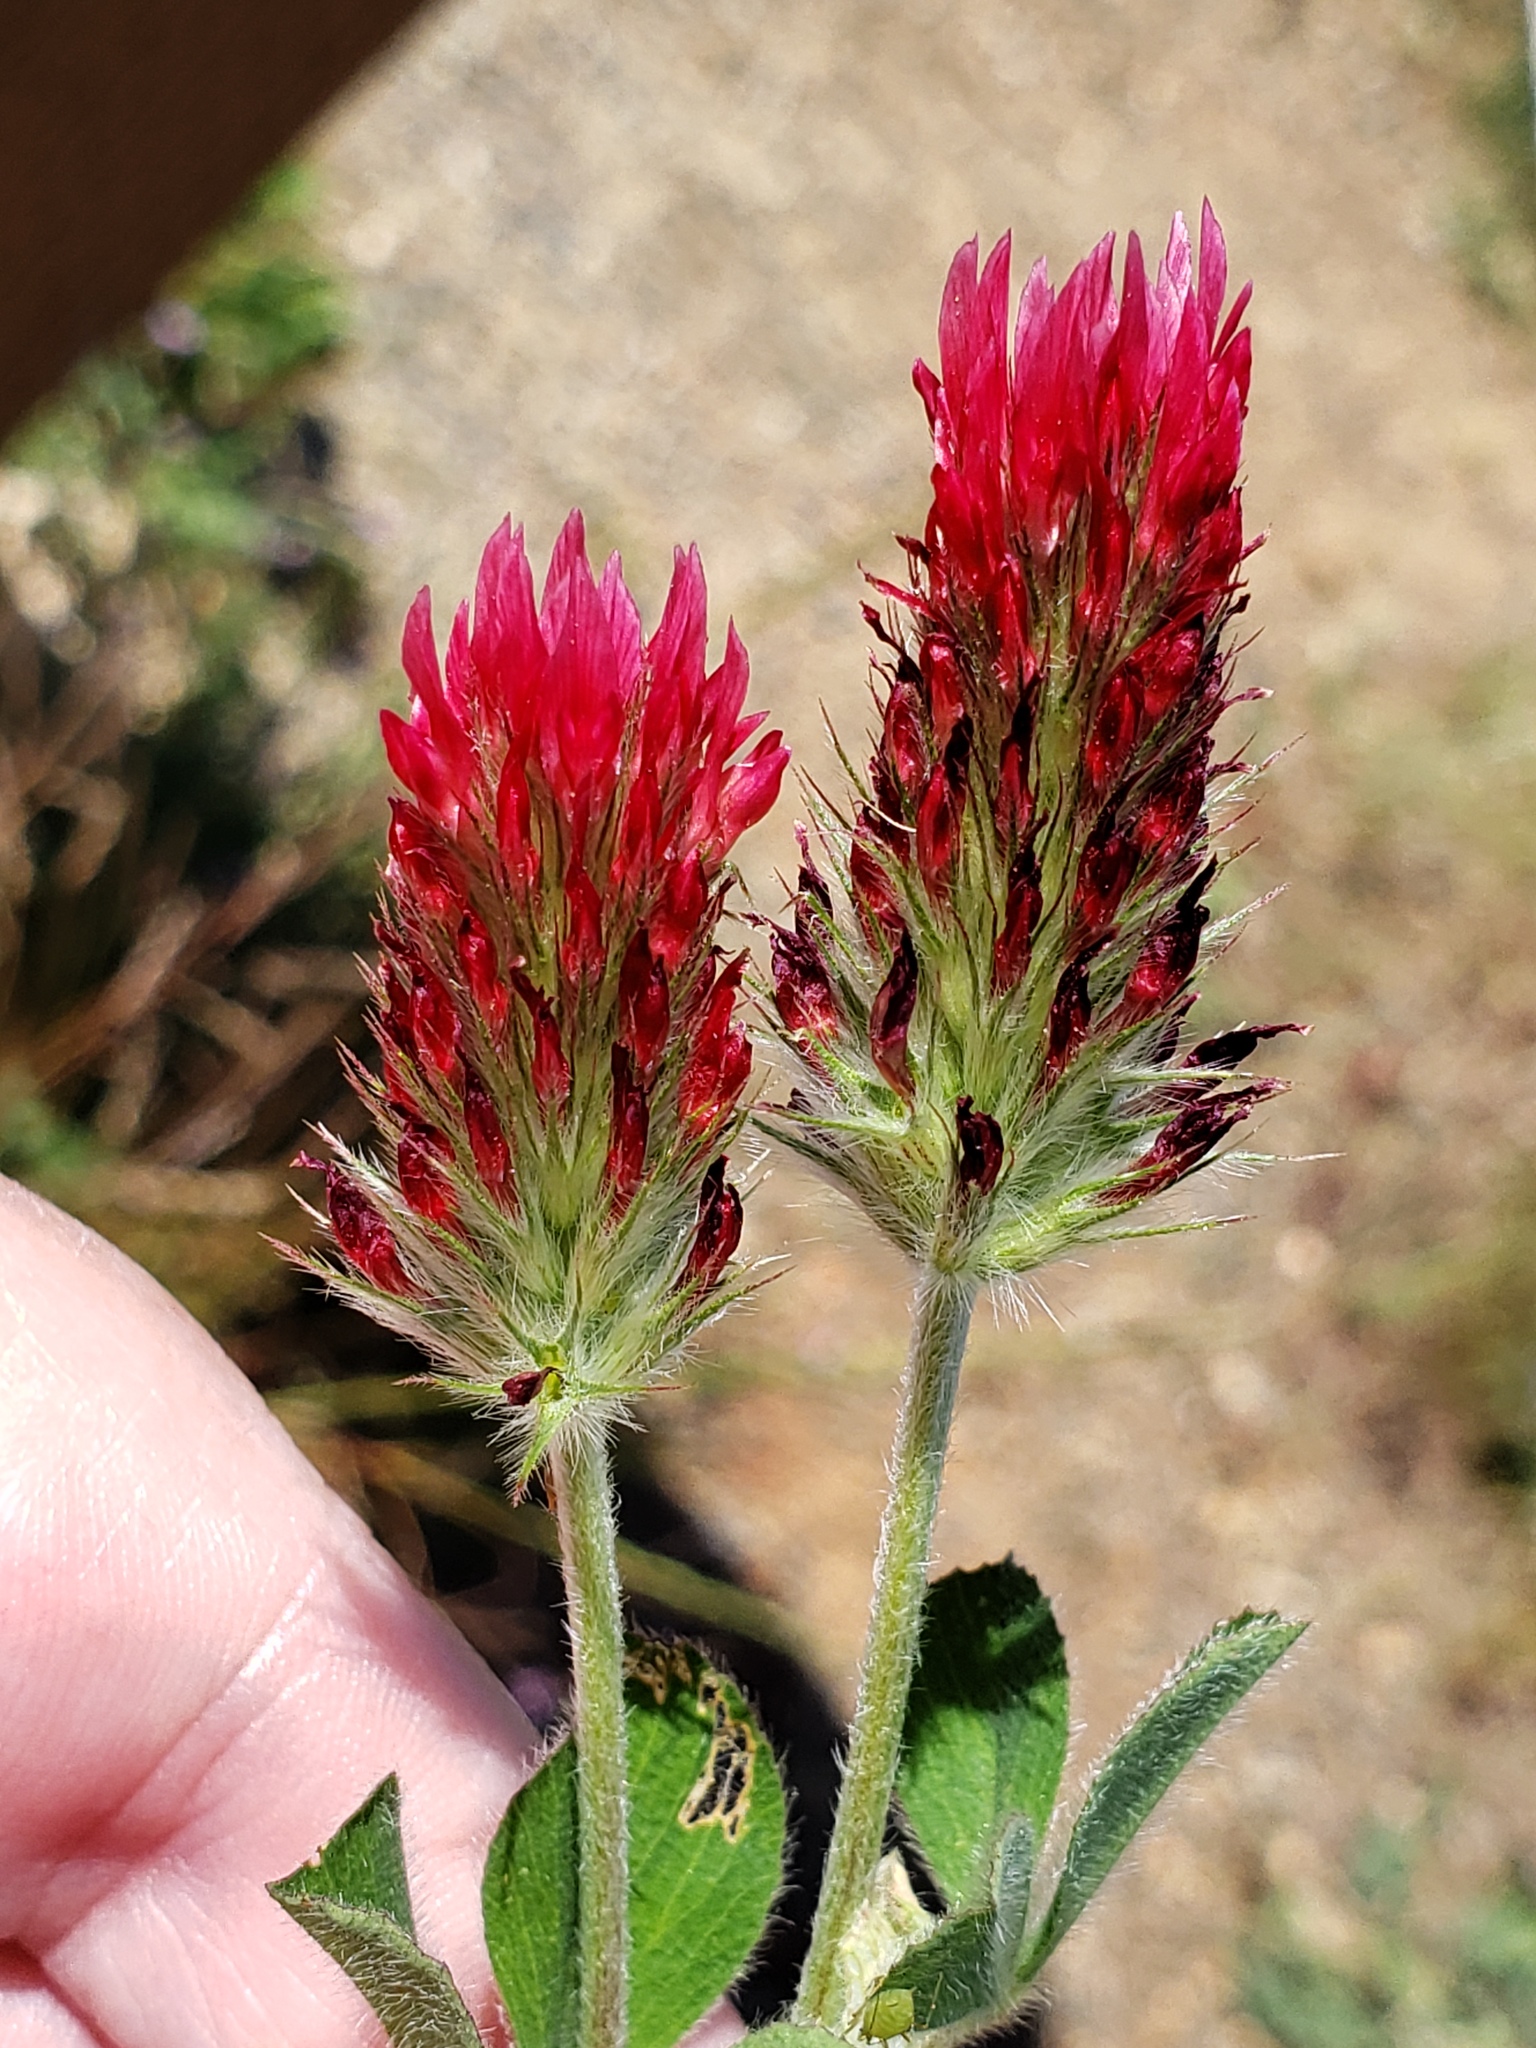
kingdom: Plantae
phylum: Tracheophyta
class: Magnoliopsida
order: Fabales
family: Fabaceae
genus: Trifolium
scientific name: Trifolium incarnatum
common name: Crimson clover
